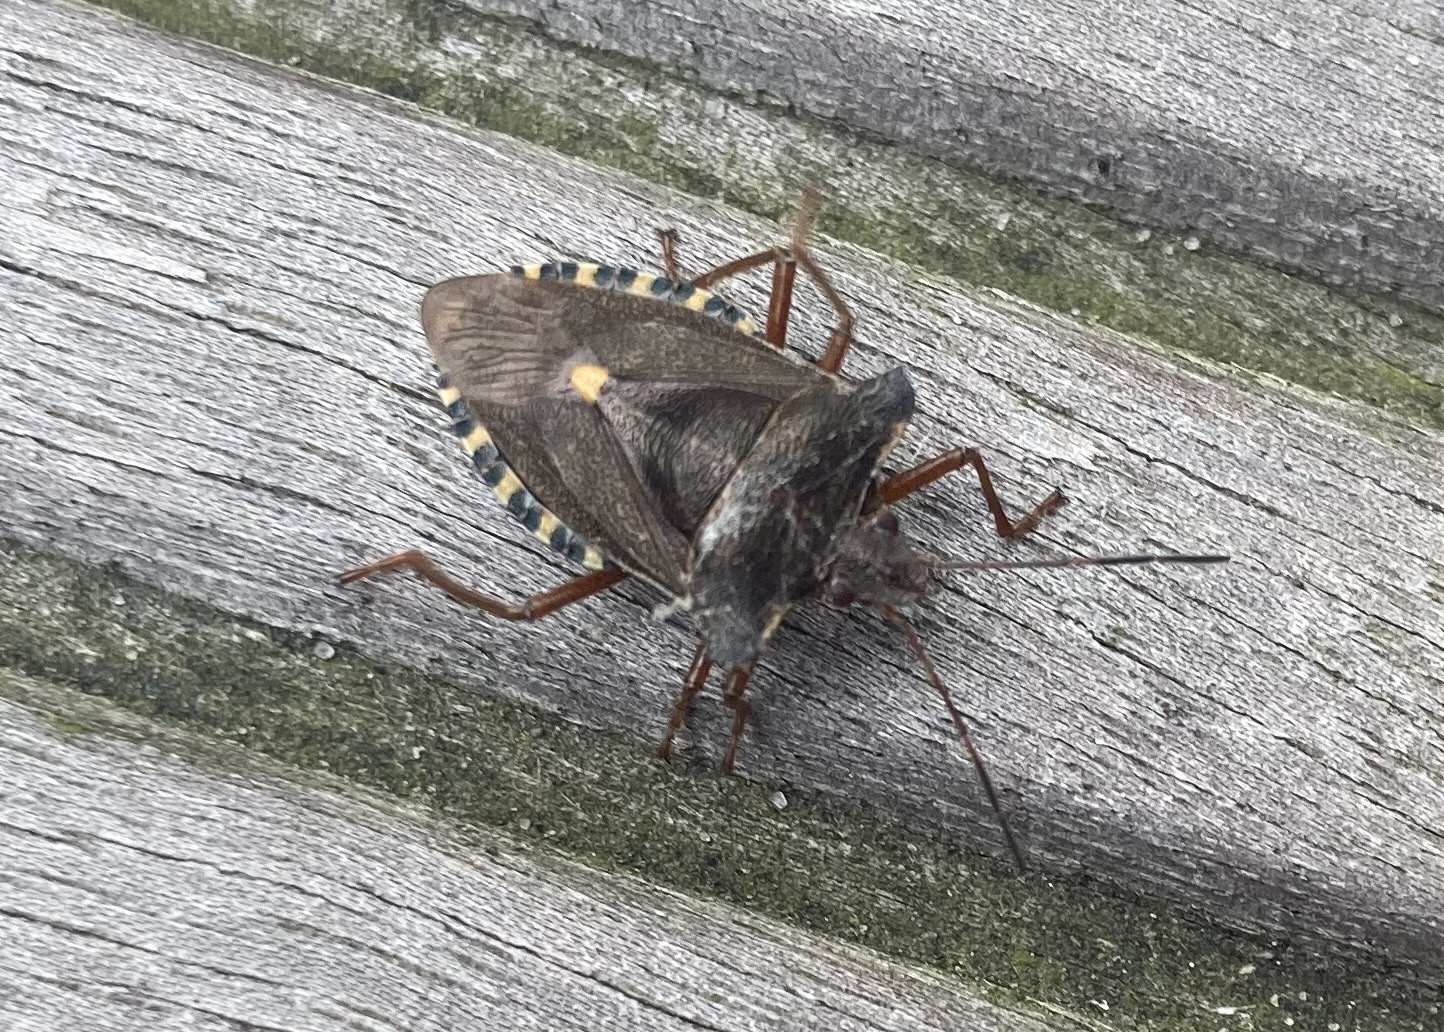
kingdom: Animalia
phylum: Arthropoda
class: Insecta
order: Hemiptera
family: Pentatomidae
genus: Pentatoma
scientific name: Pentatoma rufipes
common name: Forest bug
